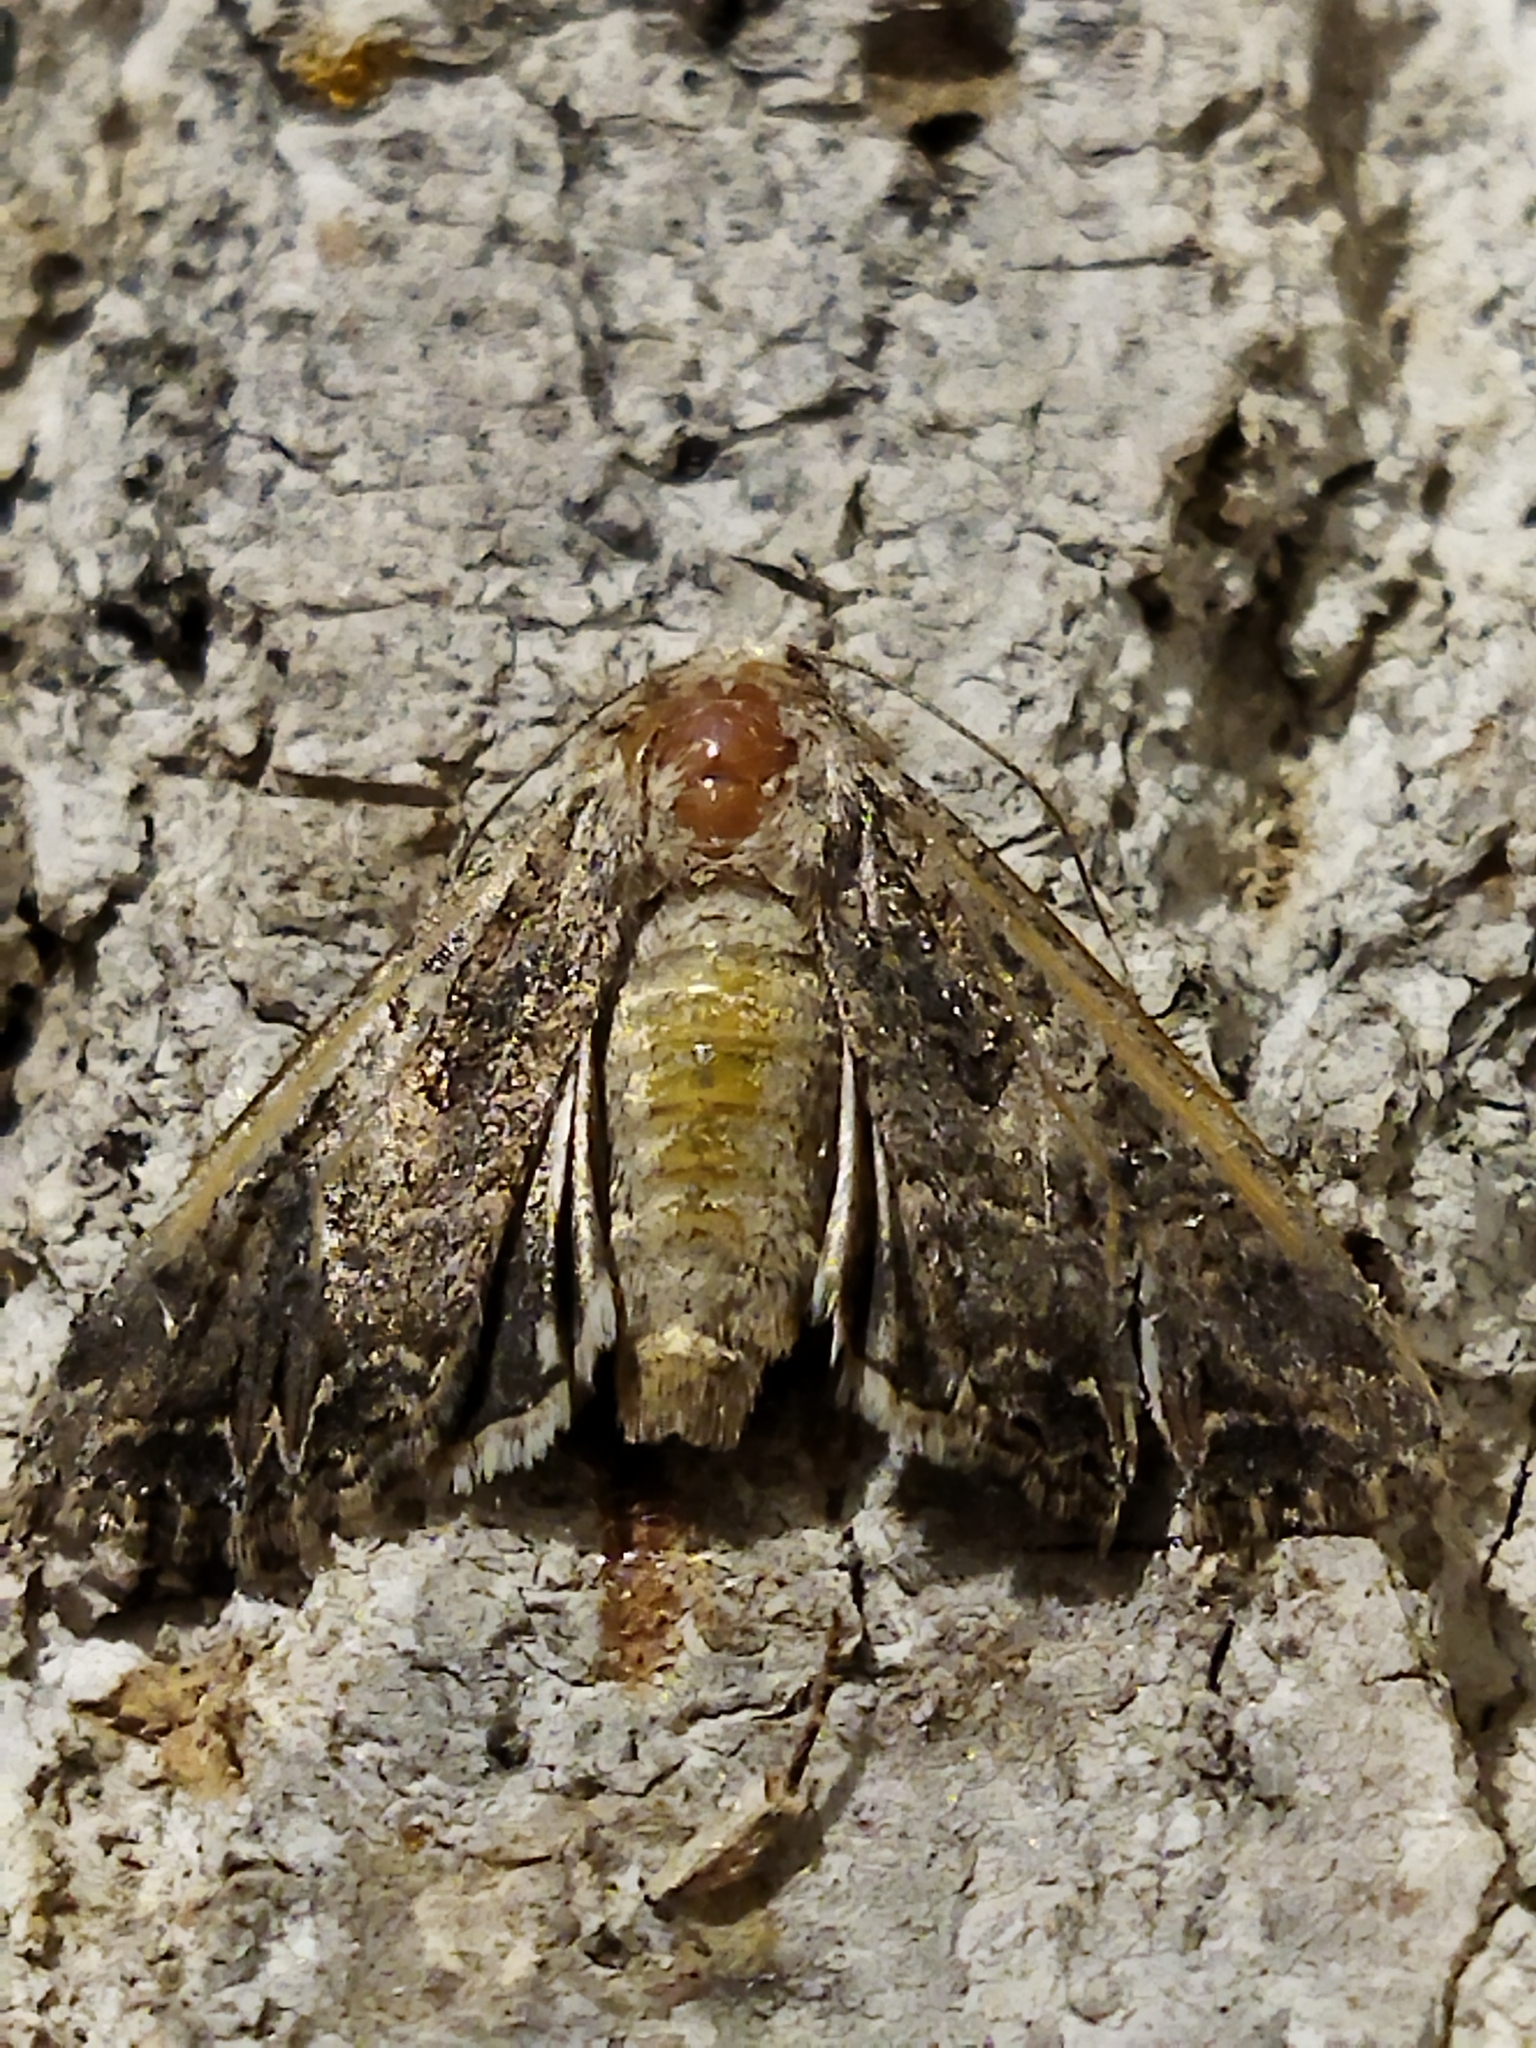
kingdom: Animalia
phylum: Arthropoda
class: Insecta
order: Lepidoptera
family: Noctuidae
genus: Anarta
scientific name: Anarta trifolii
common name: Clover cutworm moth
